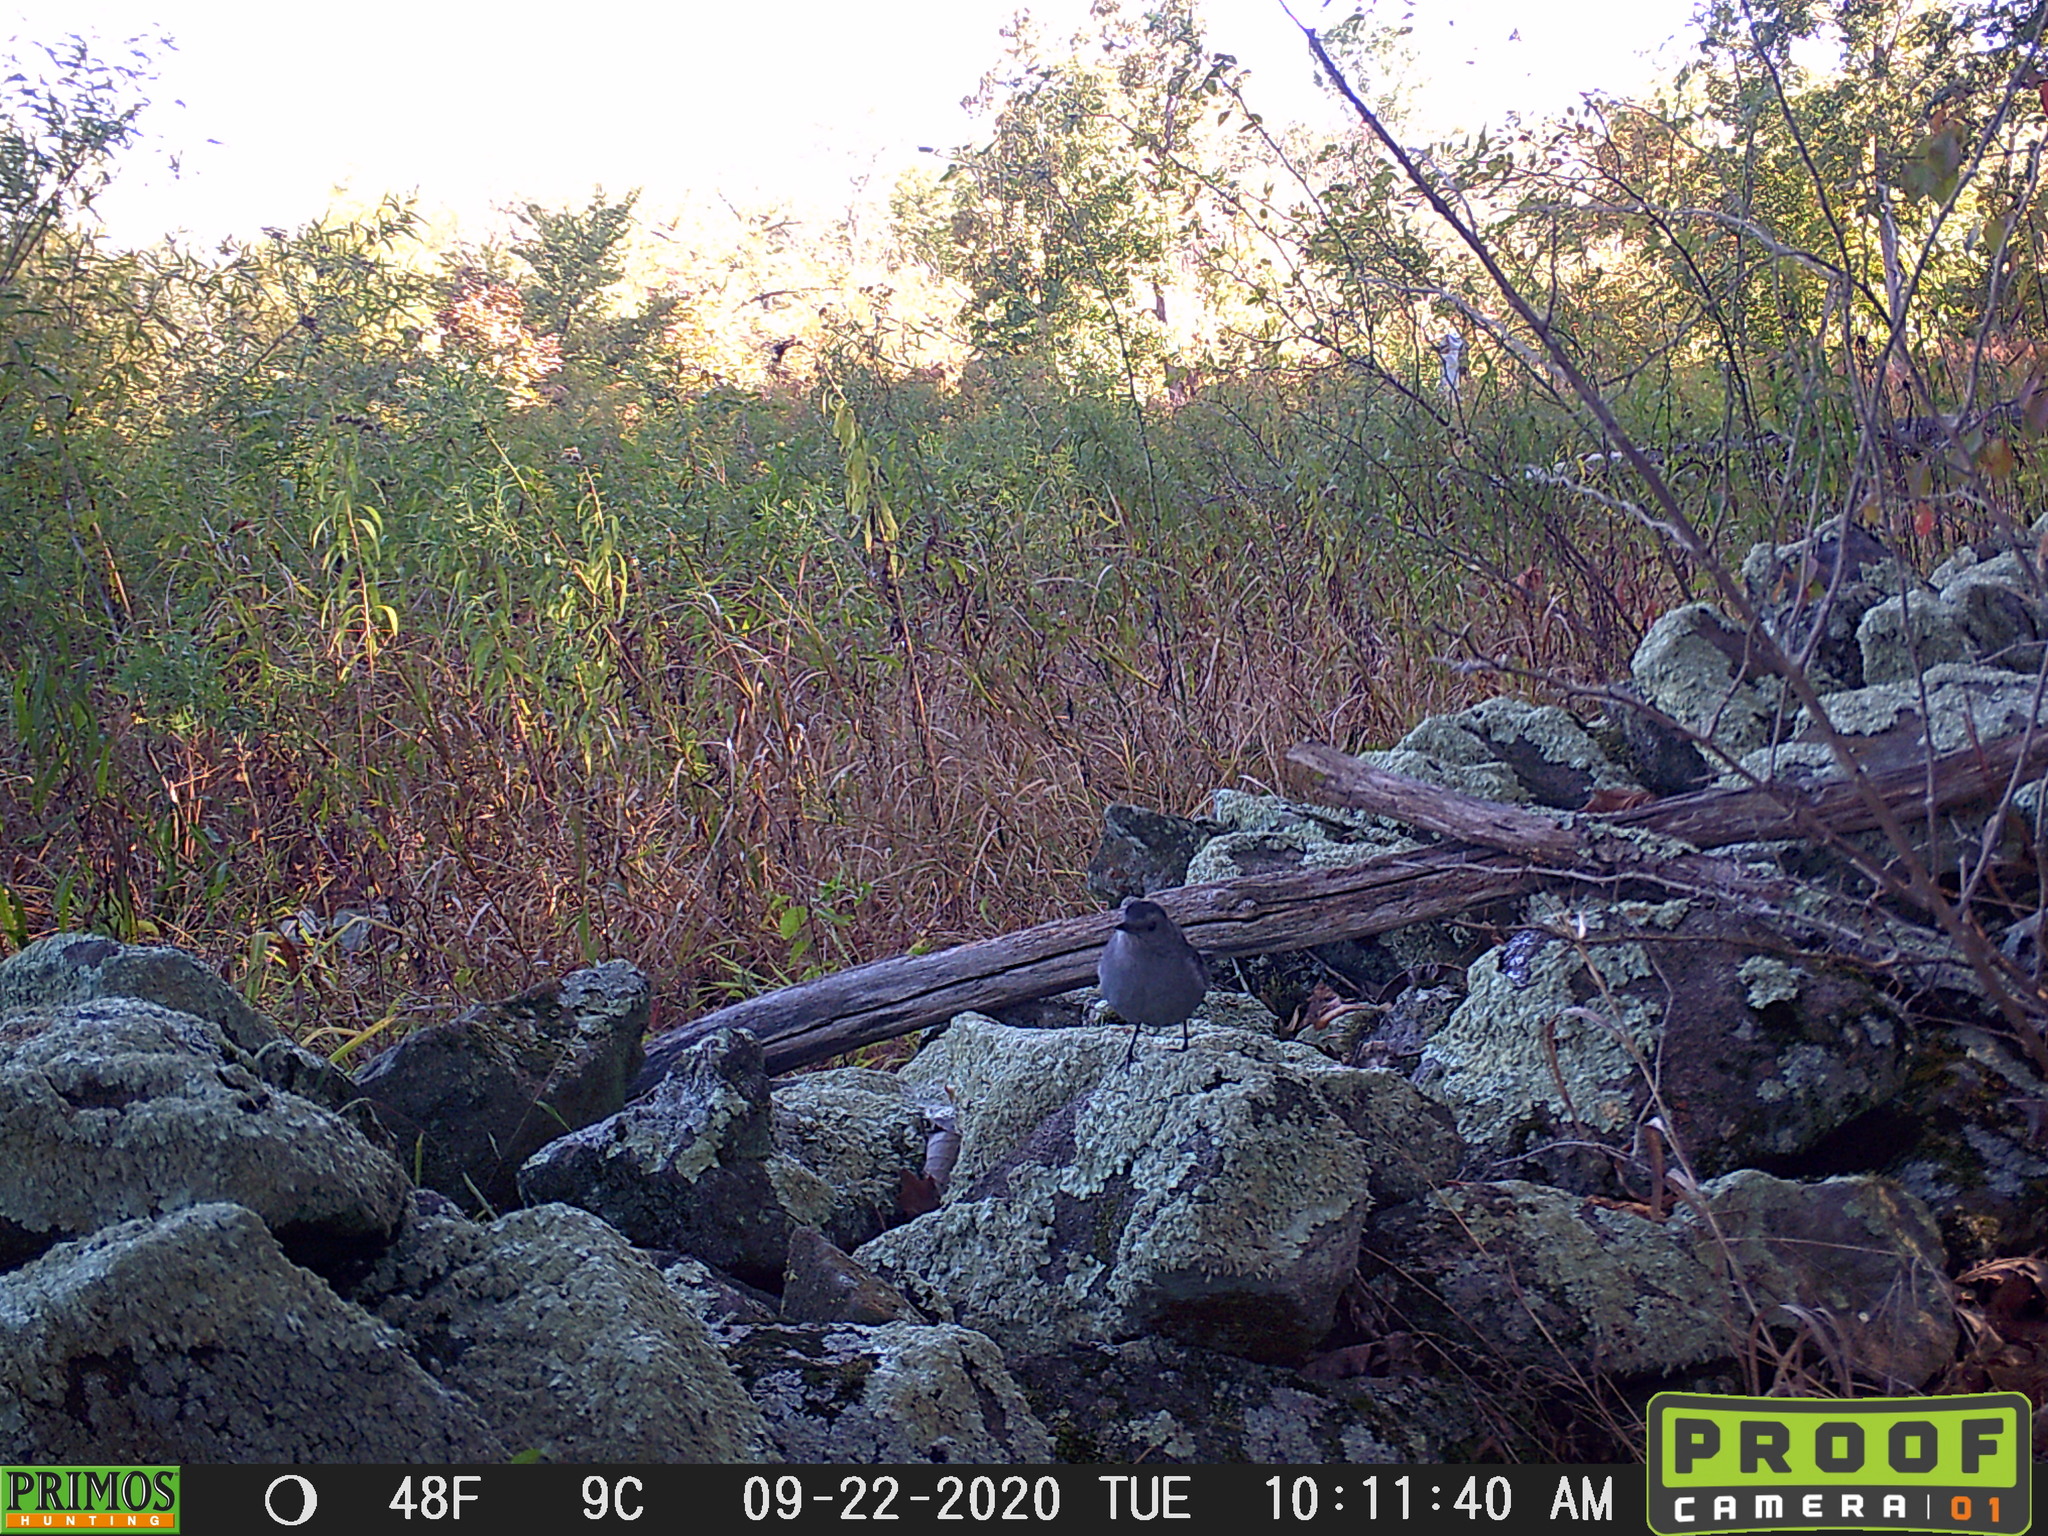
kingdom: Animalia
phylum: Chordata
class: Aves
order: Passeriformes
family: Mimidae
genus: Dumetella
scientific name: Dumetella carolinensis
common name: Gray catbird
